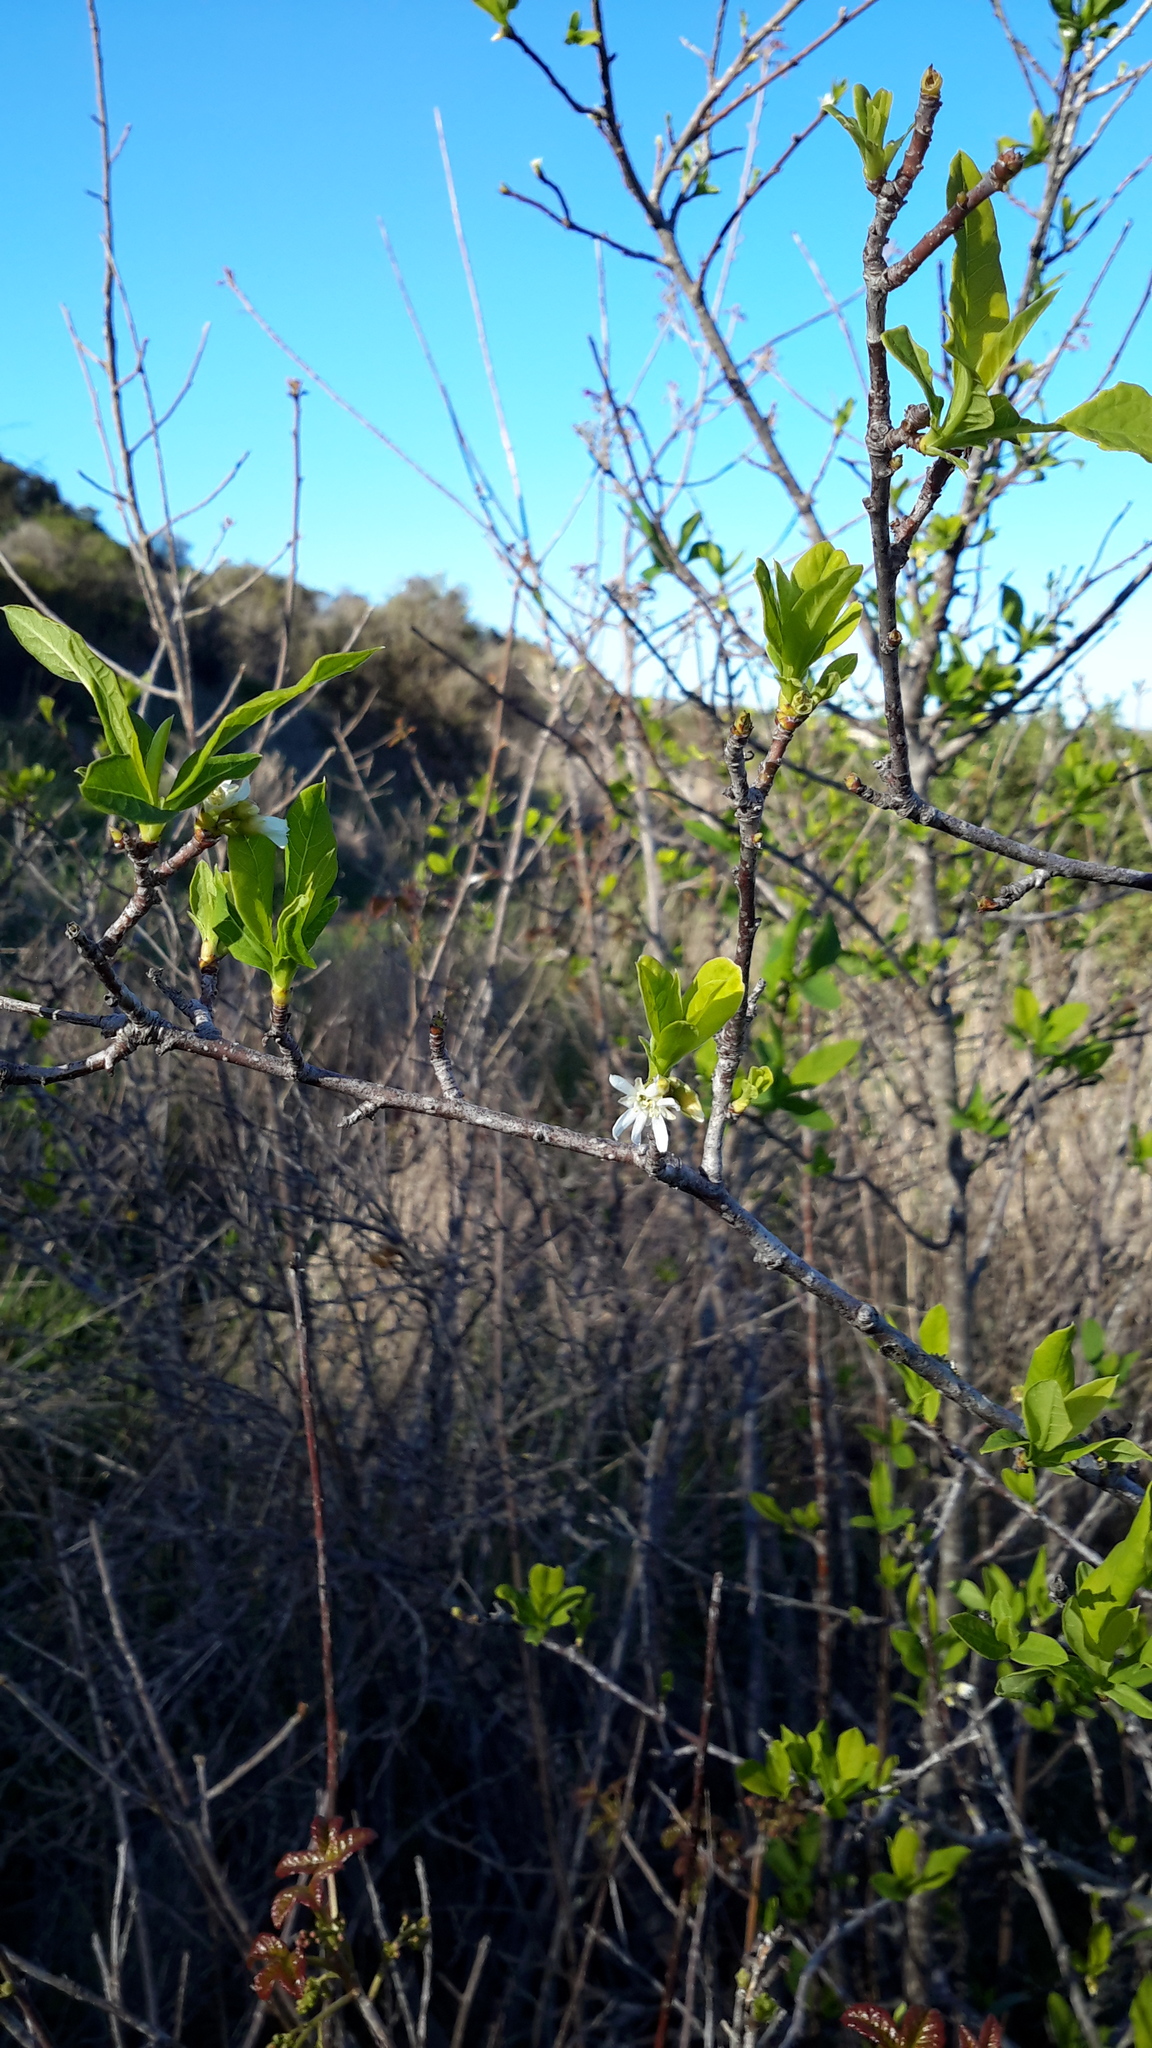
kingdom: Plantae
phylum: Tracheophyta
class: Magnoliopsida
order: Rosales
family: Rosaceae
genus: Oemleria
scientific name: Oemleria cerasiformis
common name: Osoberry
